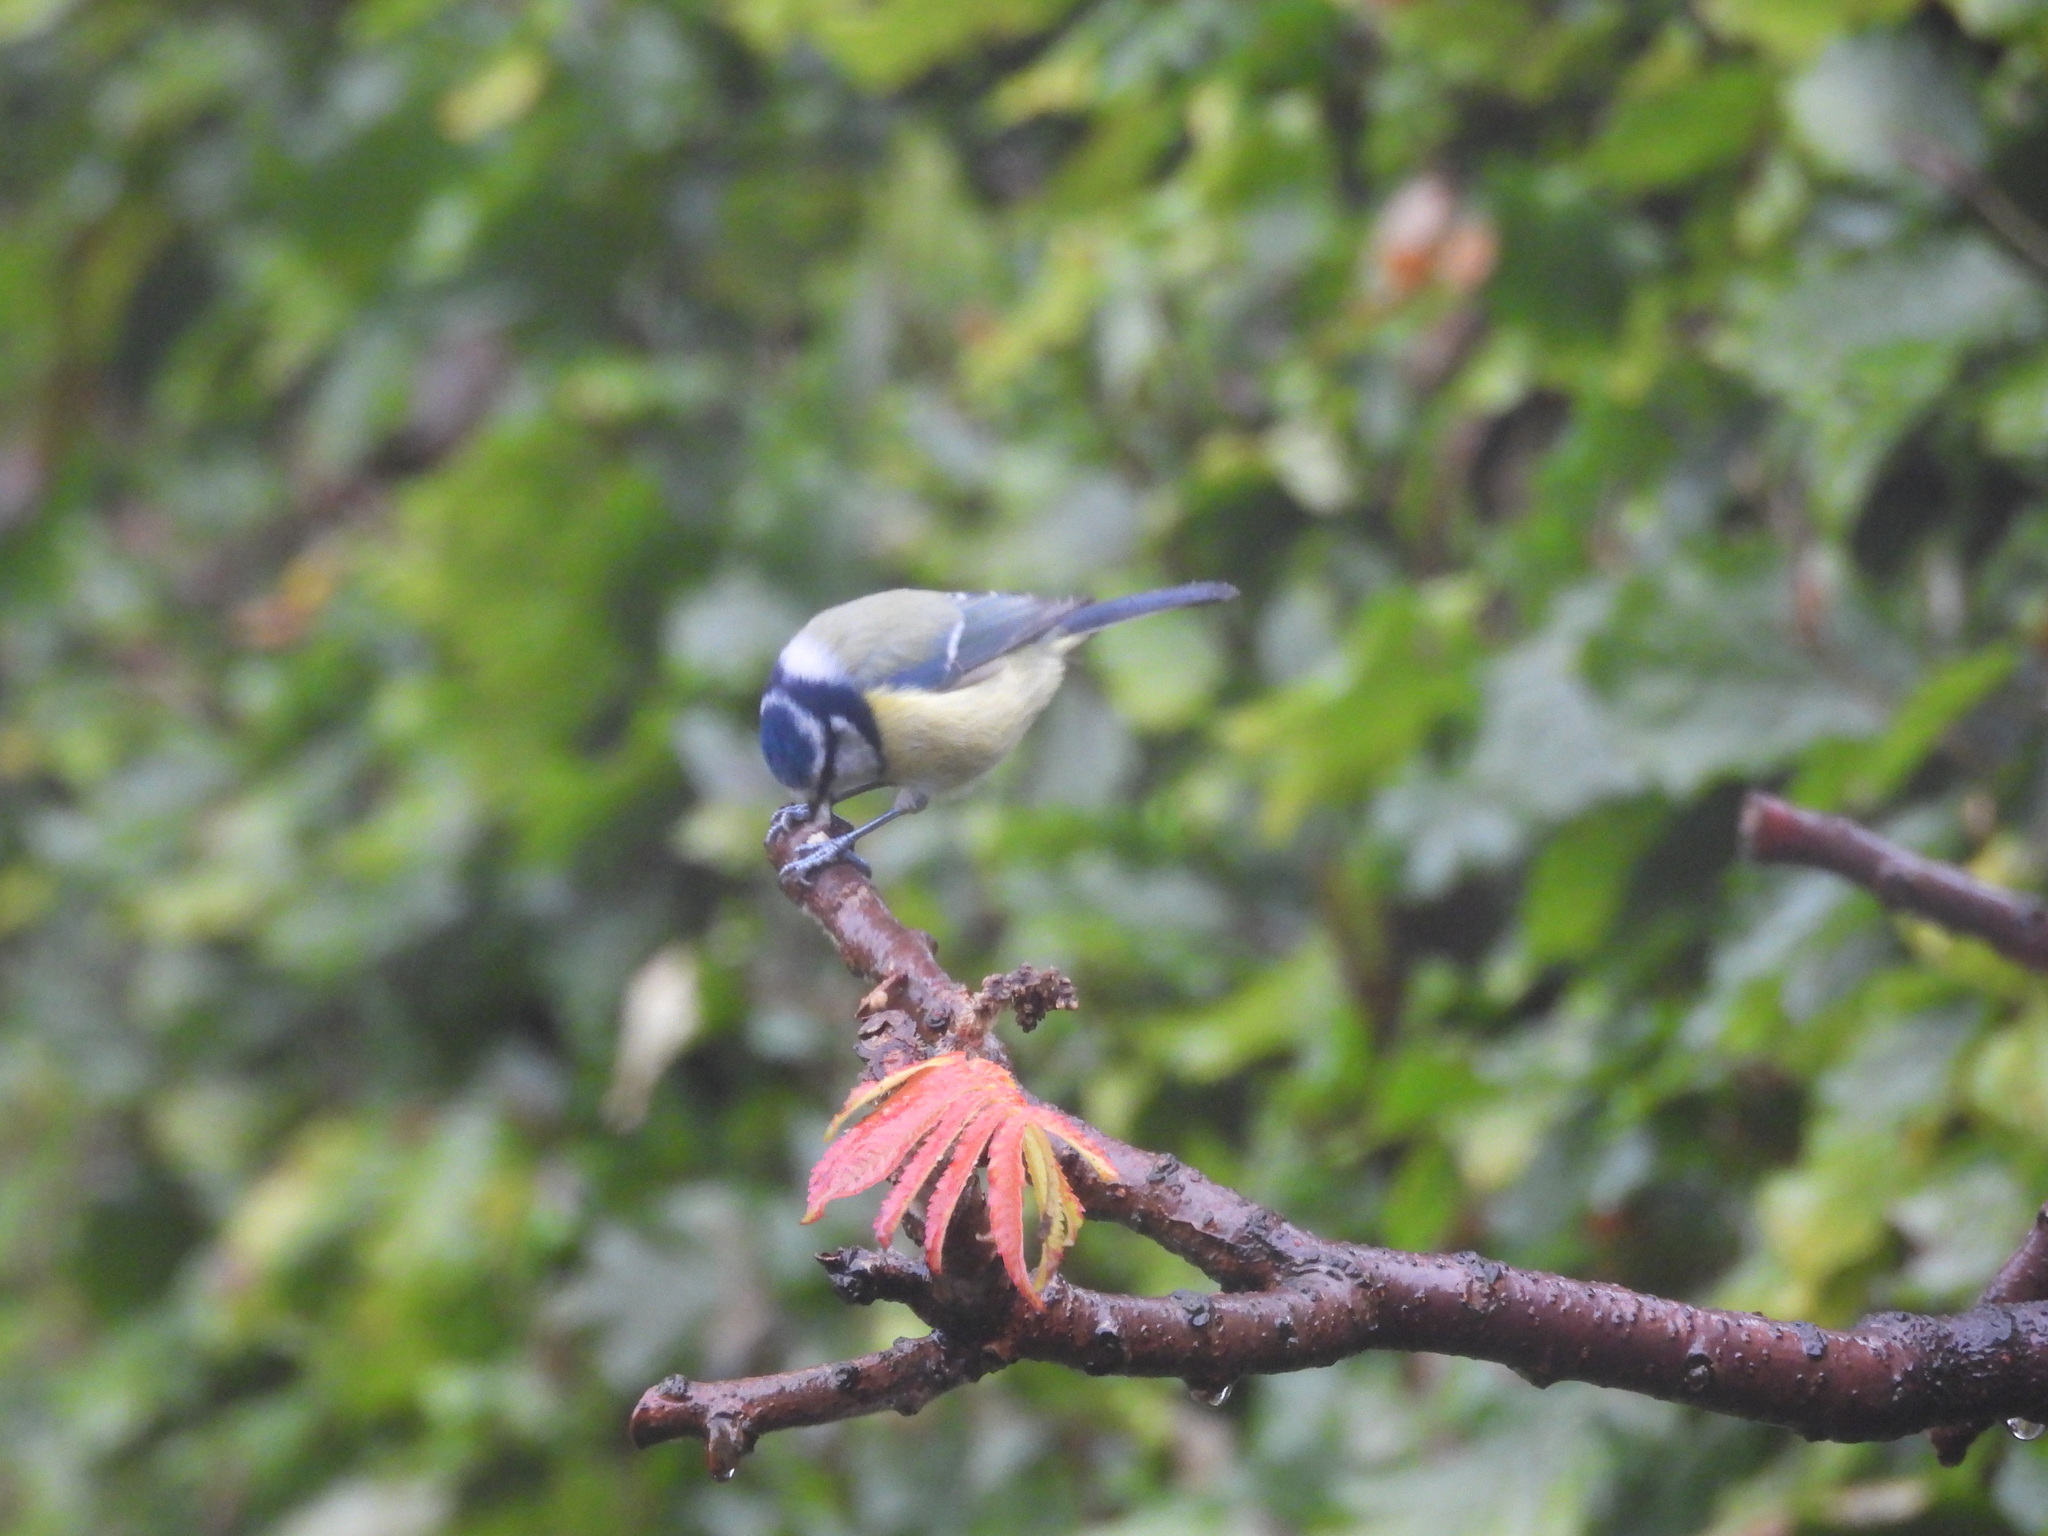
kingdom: Animalia
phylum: Chordata
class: Aves
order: Passeriformes
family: Paridae
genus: Cyanistes
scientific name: Cyanistes caeruleus
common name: Eurasian blue tit
